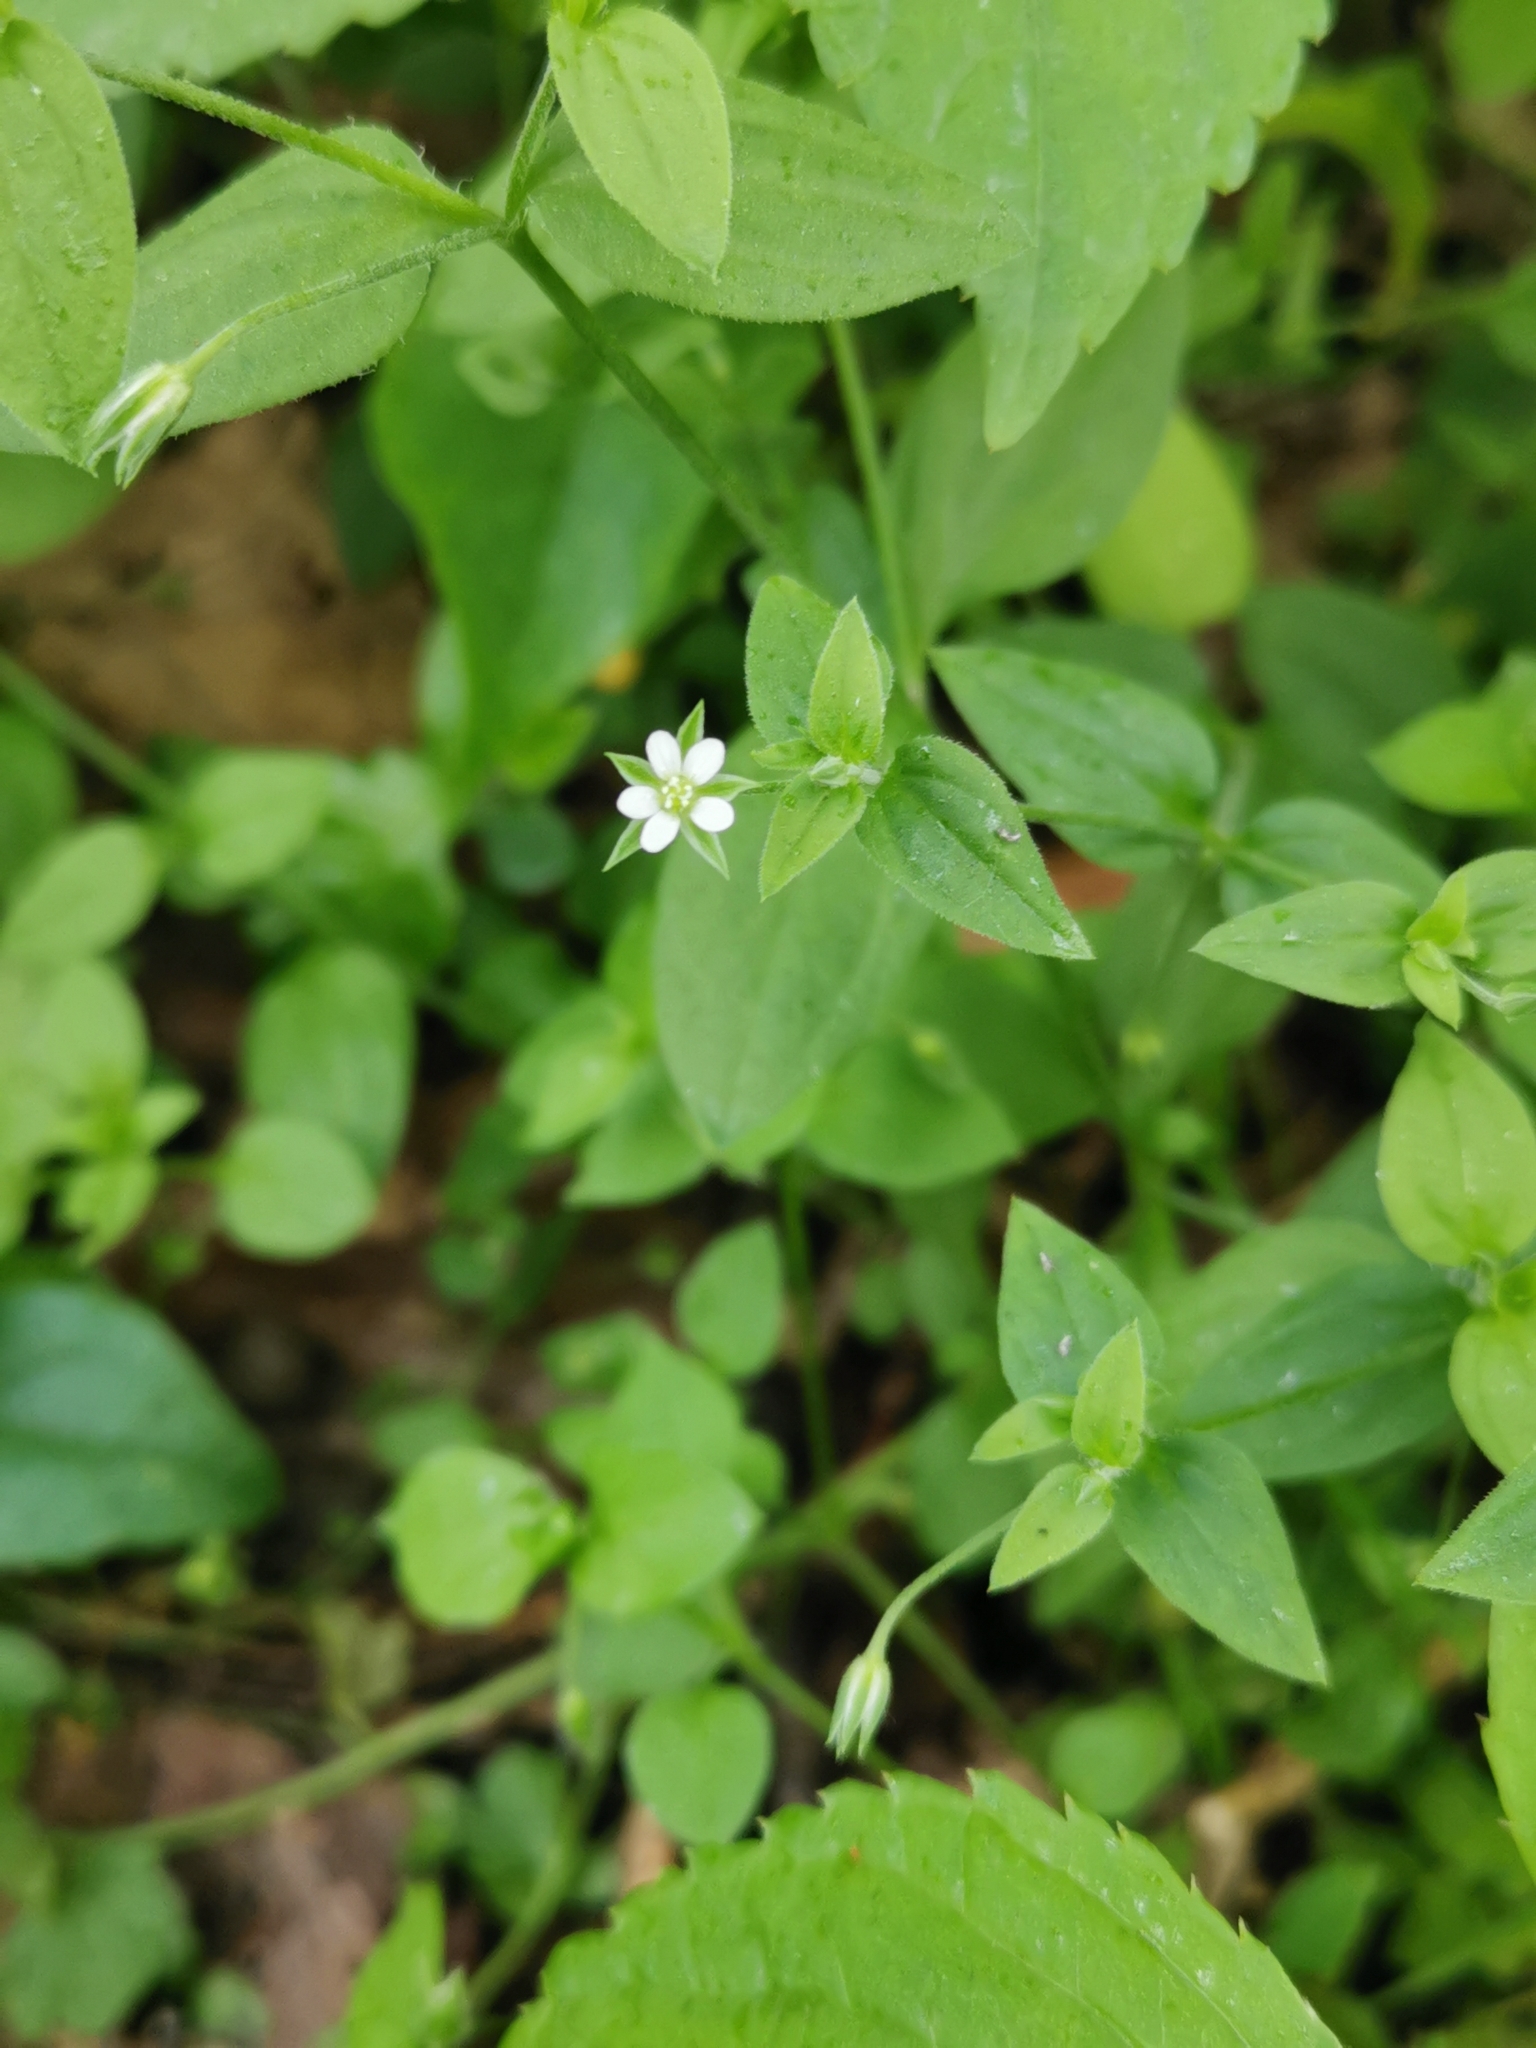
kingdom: Plantae
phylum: Tracheophyta
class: Magnoliopsida
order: Caryophyllales
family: Caryophyllaceae
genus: Moehringia
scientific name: Moehringia trinervia
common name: Three-nerved sandwort
